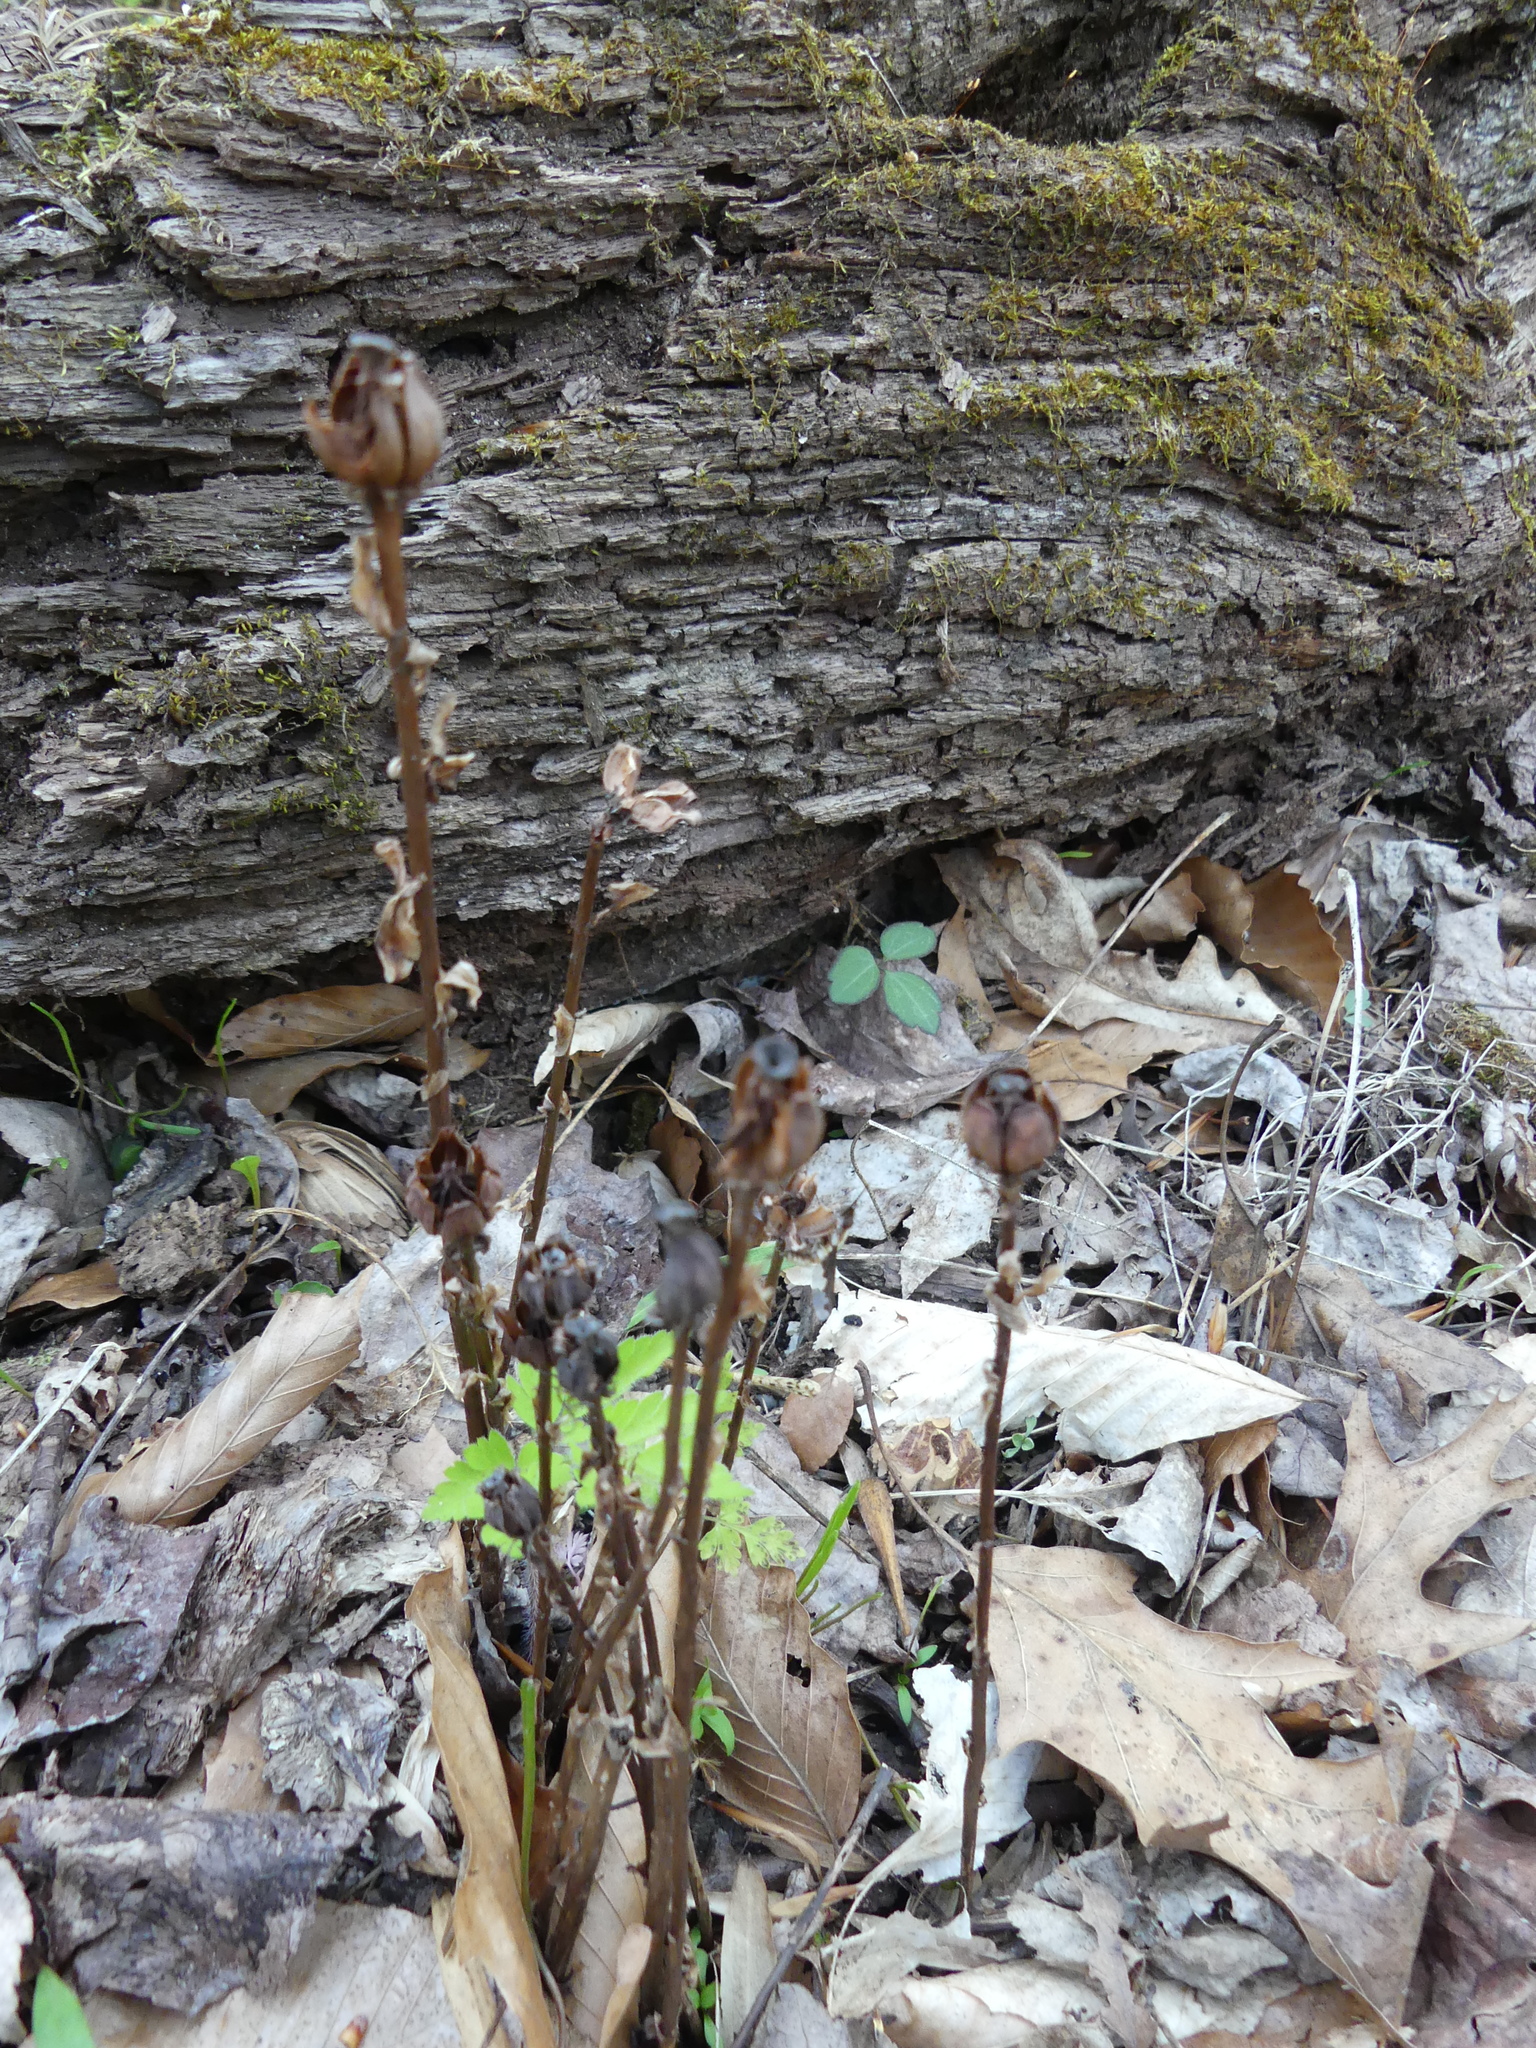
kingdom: Plantae
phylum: Tracheophyta
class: Magnoliopsida
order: Ericales
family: Ericaceae
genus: Monotropa
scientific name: Monotropa uniflora
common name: Convulsion root
